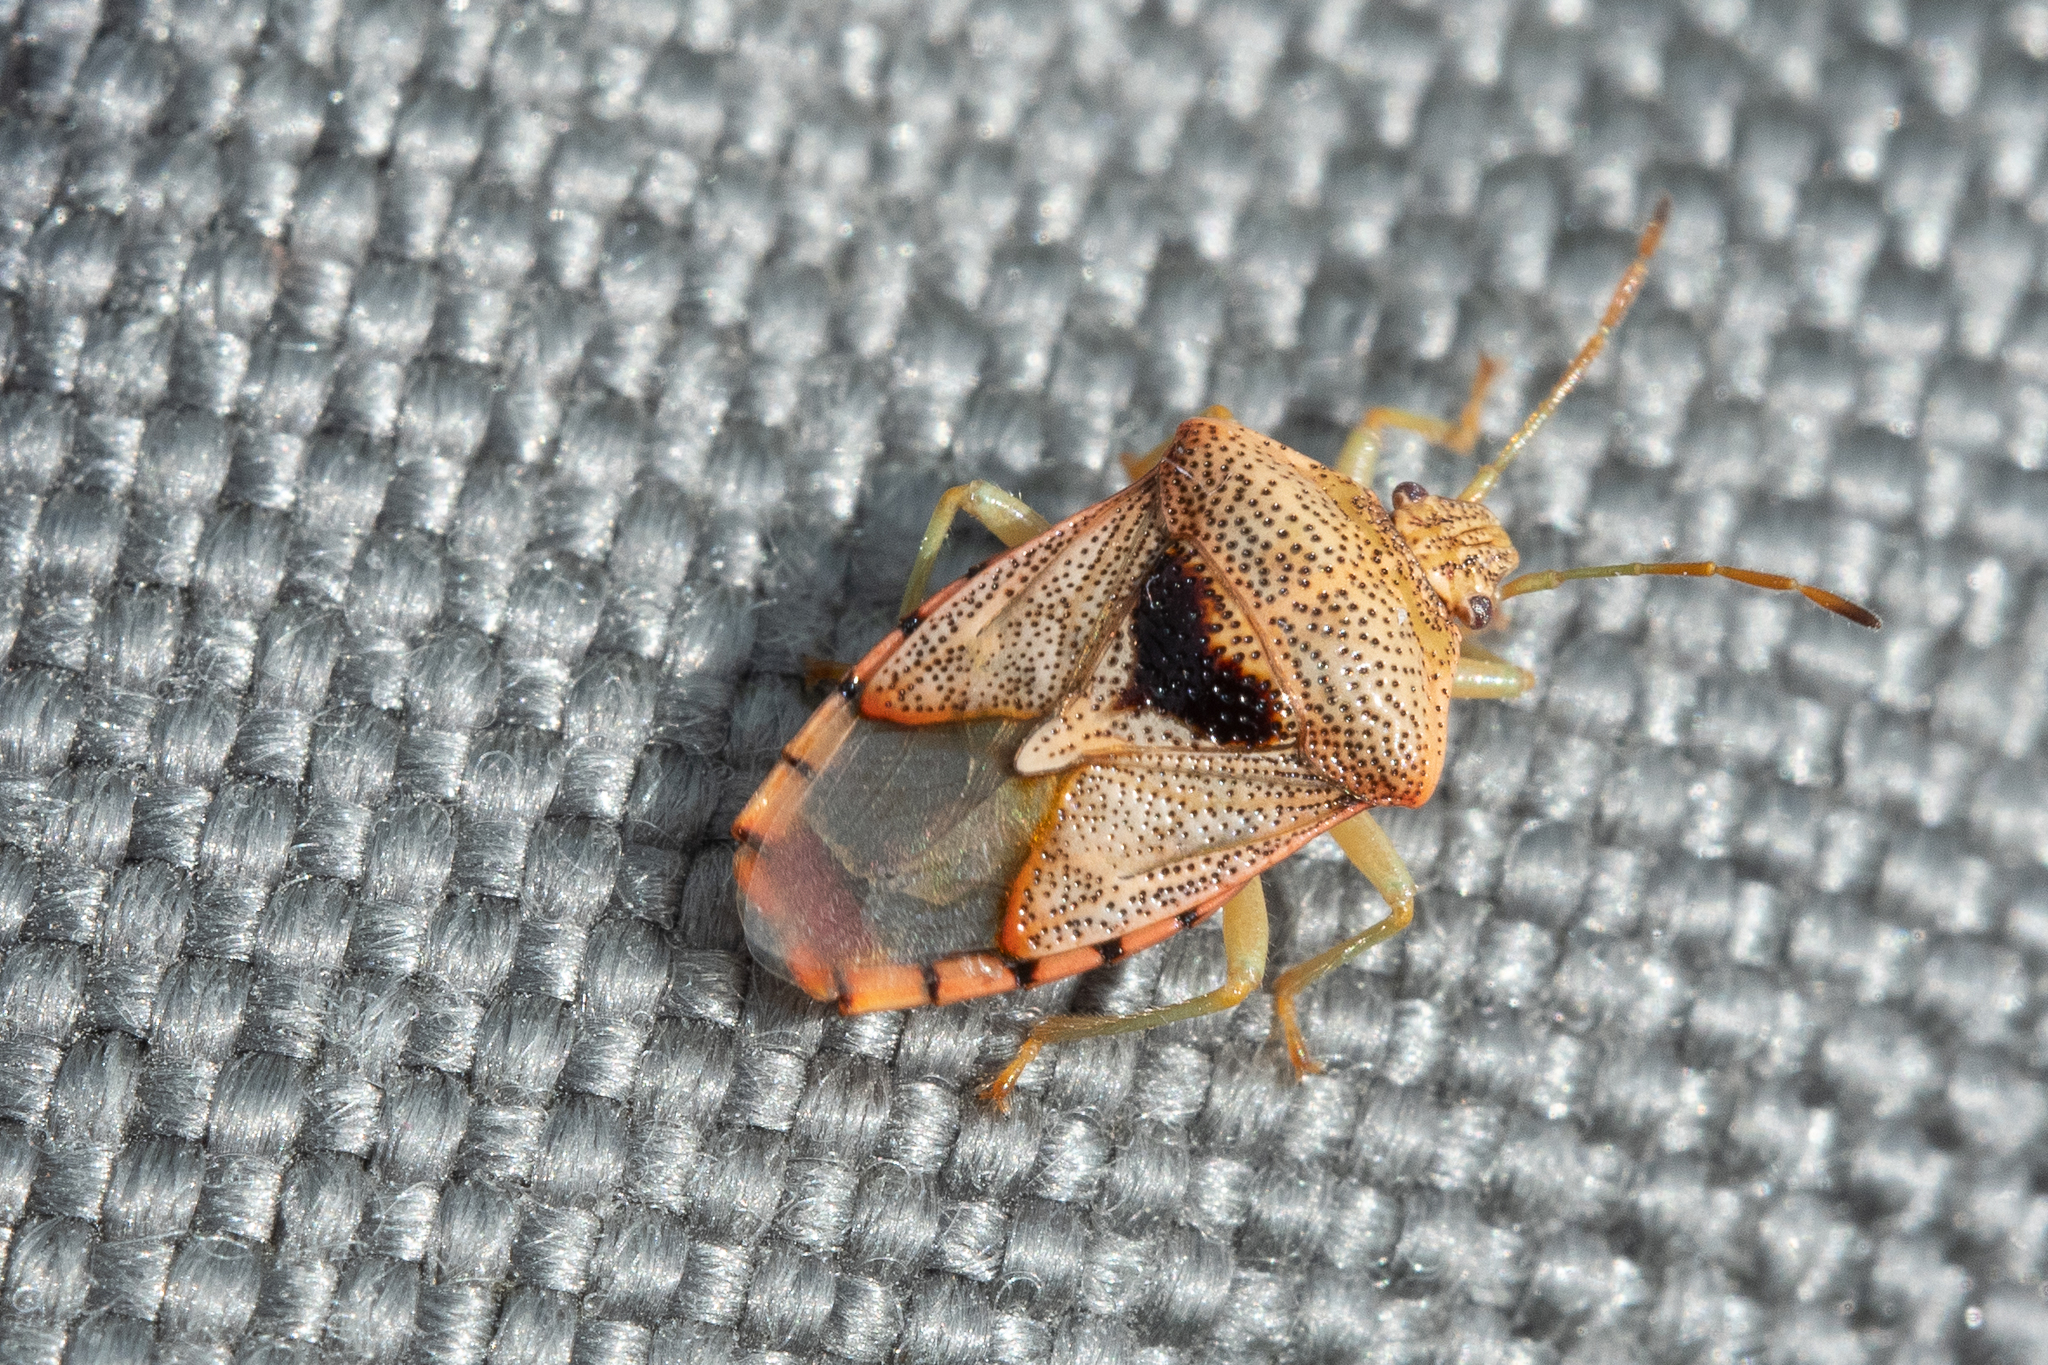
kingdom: Animalia
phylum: Arthropoda
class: Insecta
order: Hemiptera
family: Acanthosomatidae
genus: Elasmucha
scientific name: Elasmucha grisea
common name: Parent bug
